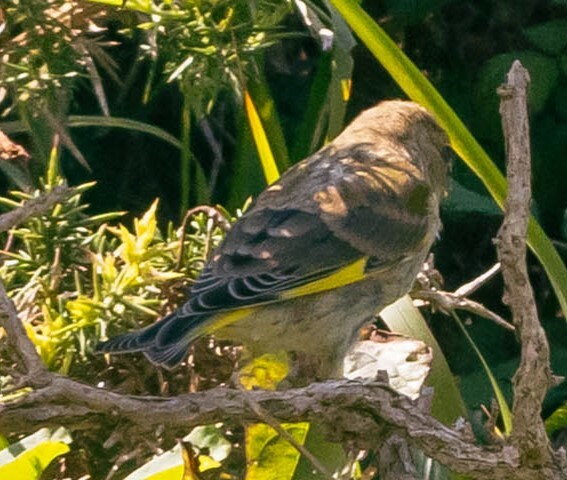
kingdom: Plantae
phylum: Tracheophyta
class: Liliopsida
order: Poales
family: Poaceae
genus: Chloris
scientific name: Chloris chloris
